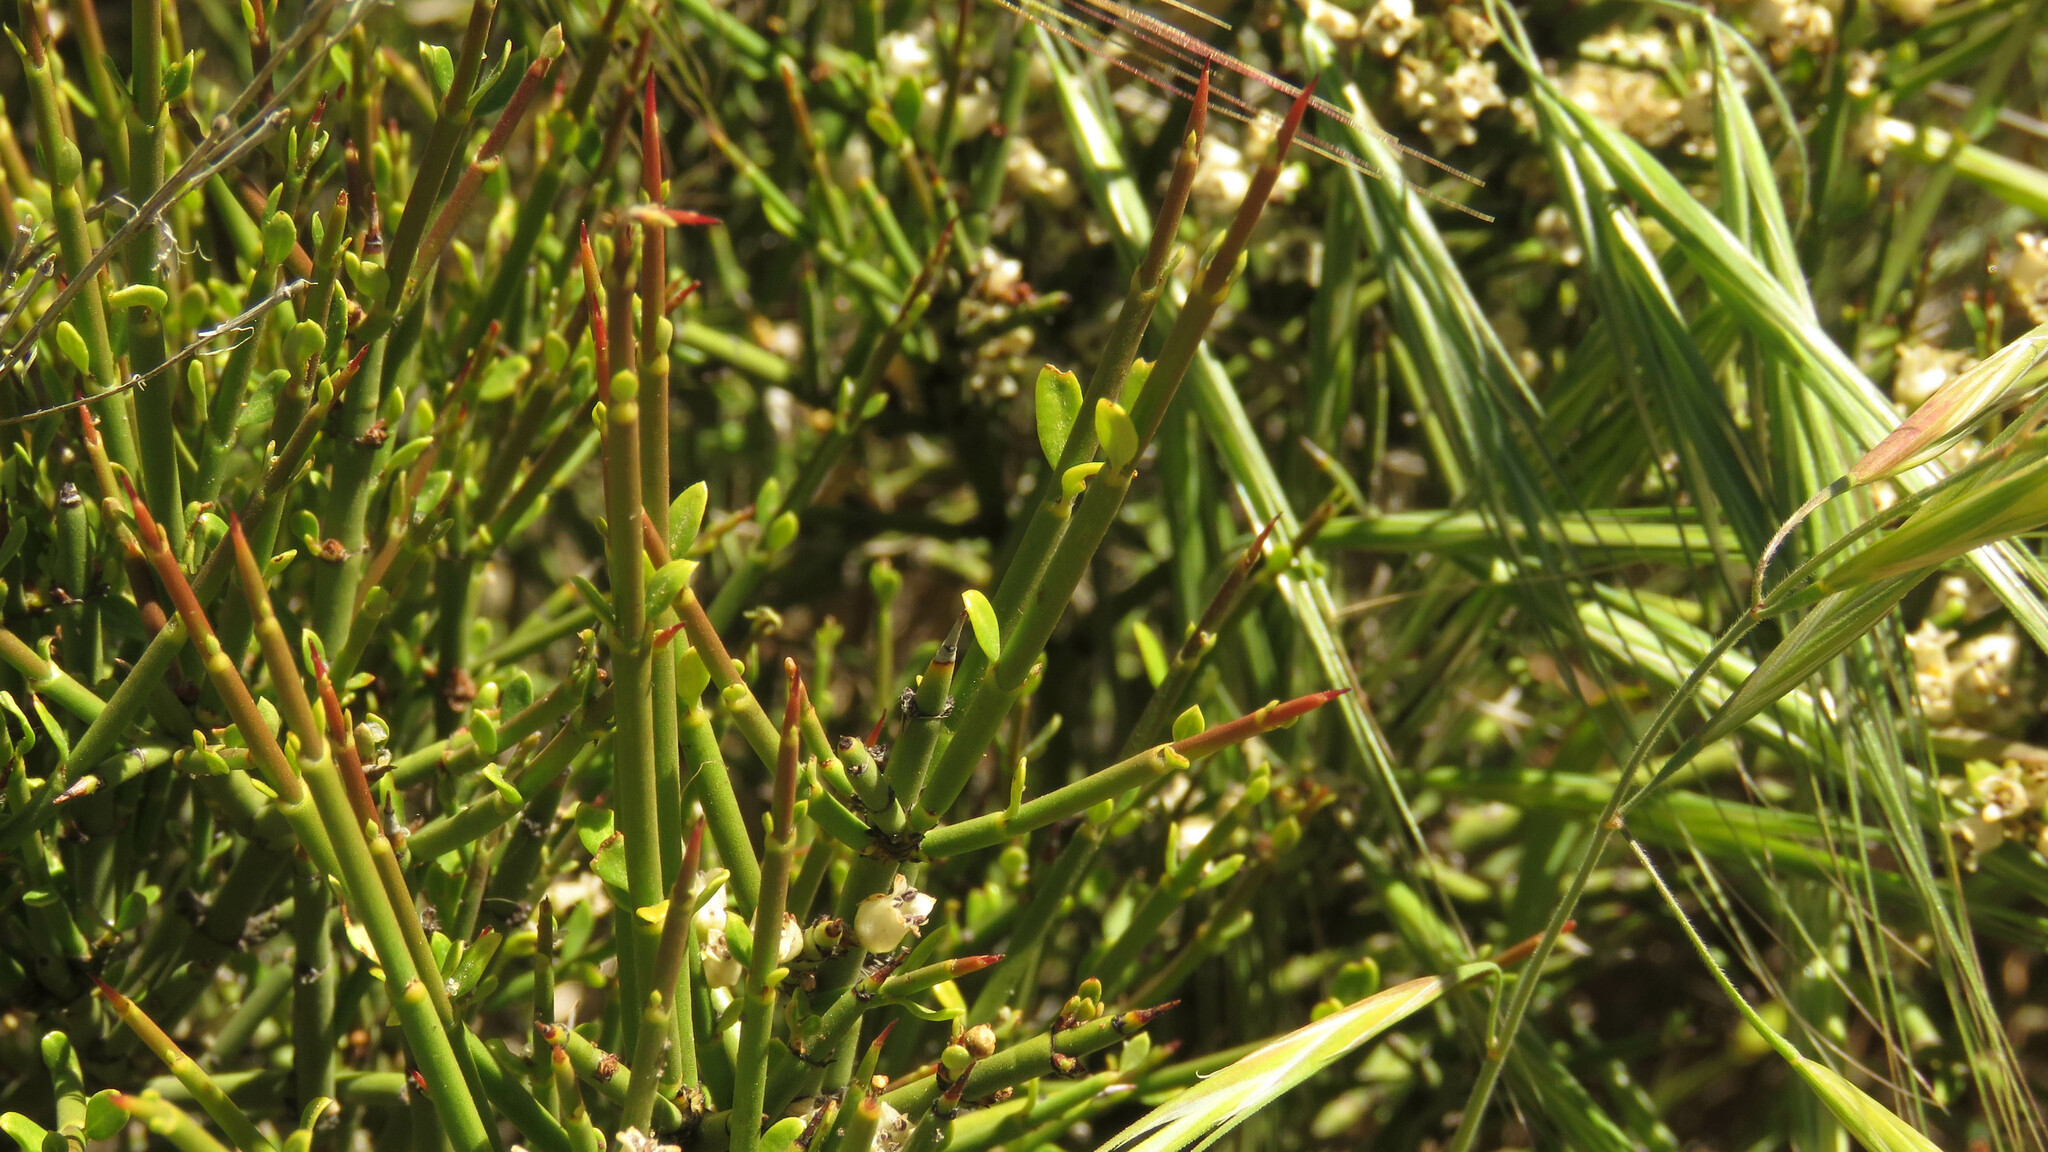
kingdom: Plantae
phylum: Tracheophyta
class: Magnoliopsida
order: Rosales
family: Rhamnaceae
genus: Discaria
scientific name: Discaria articulata
